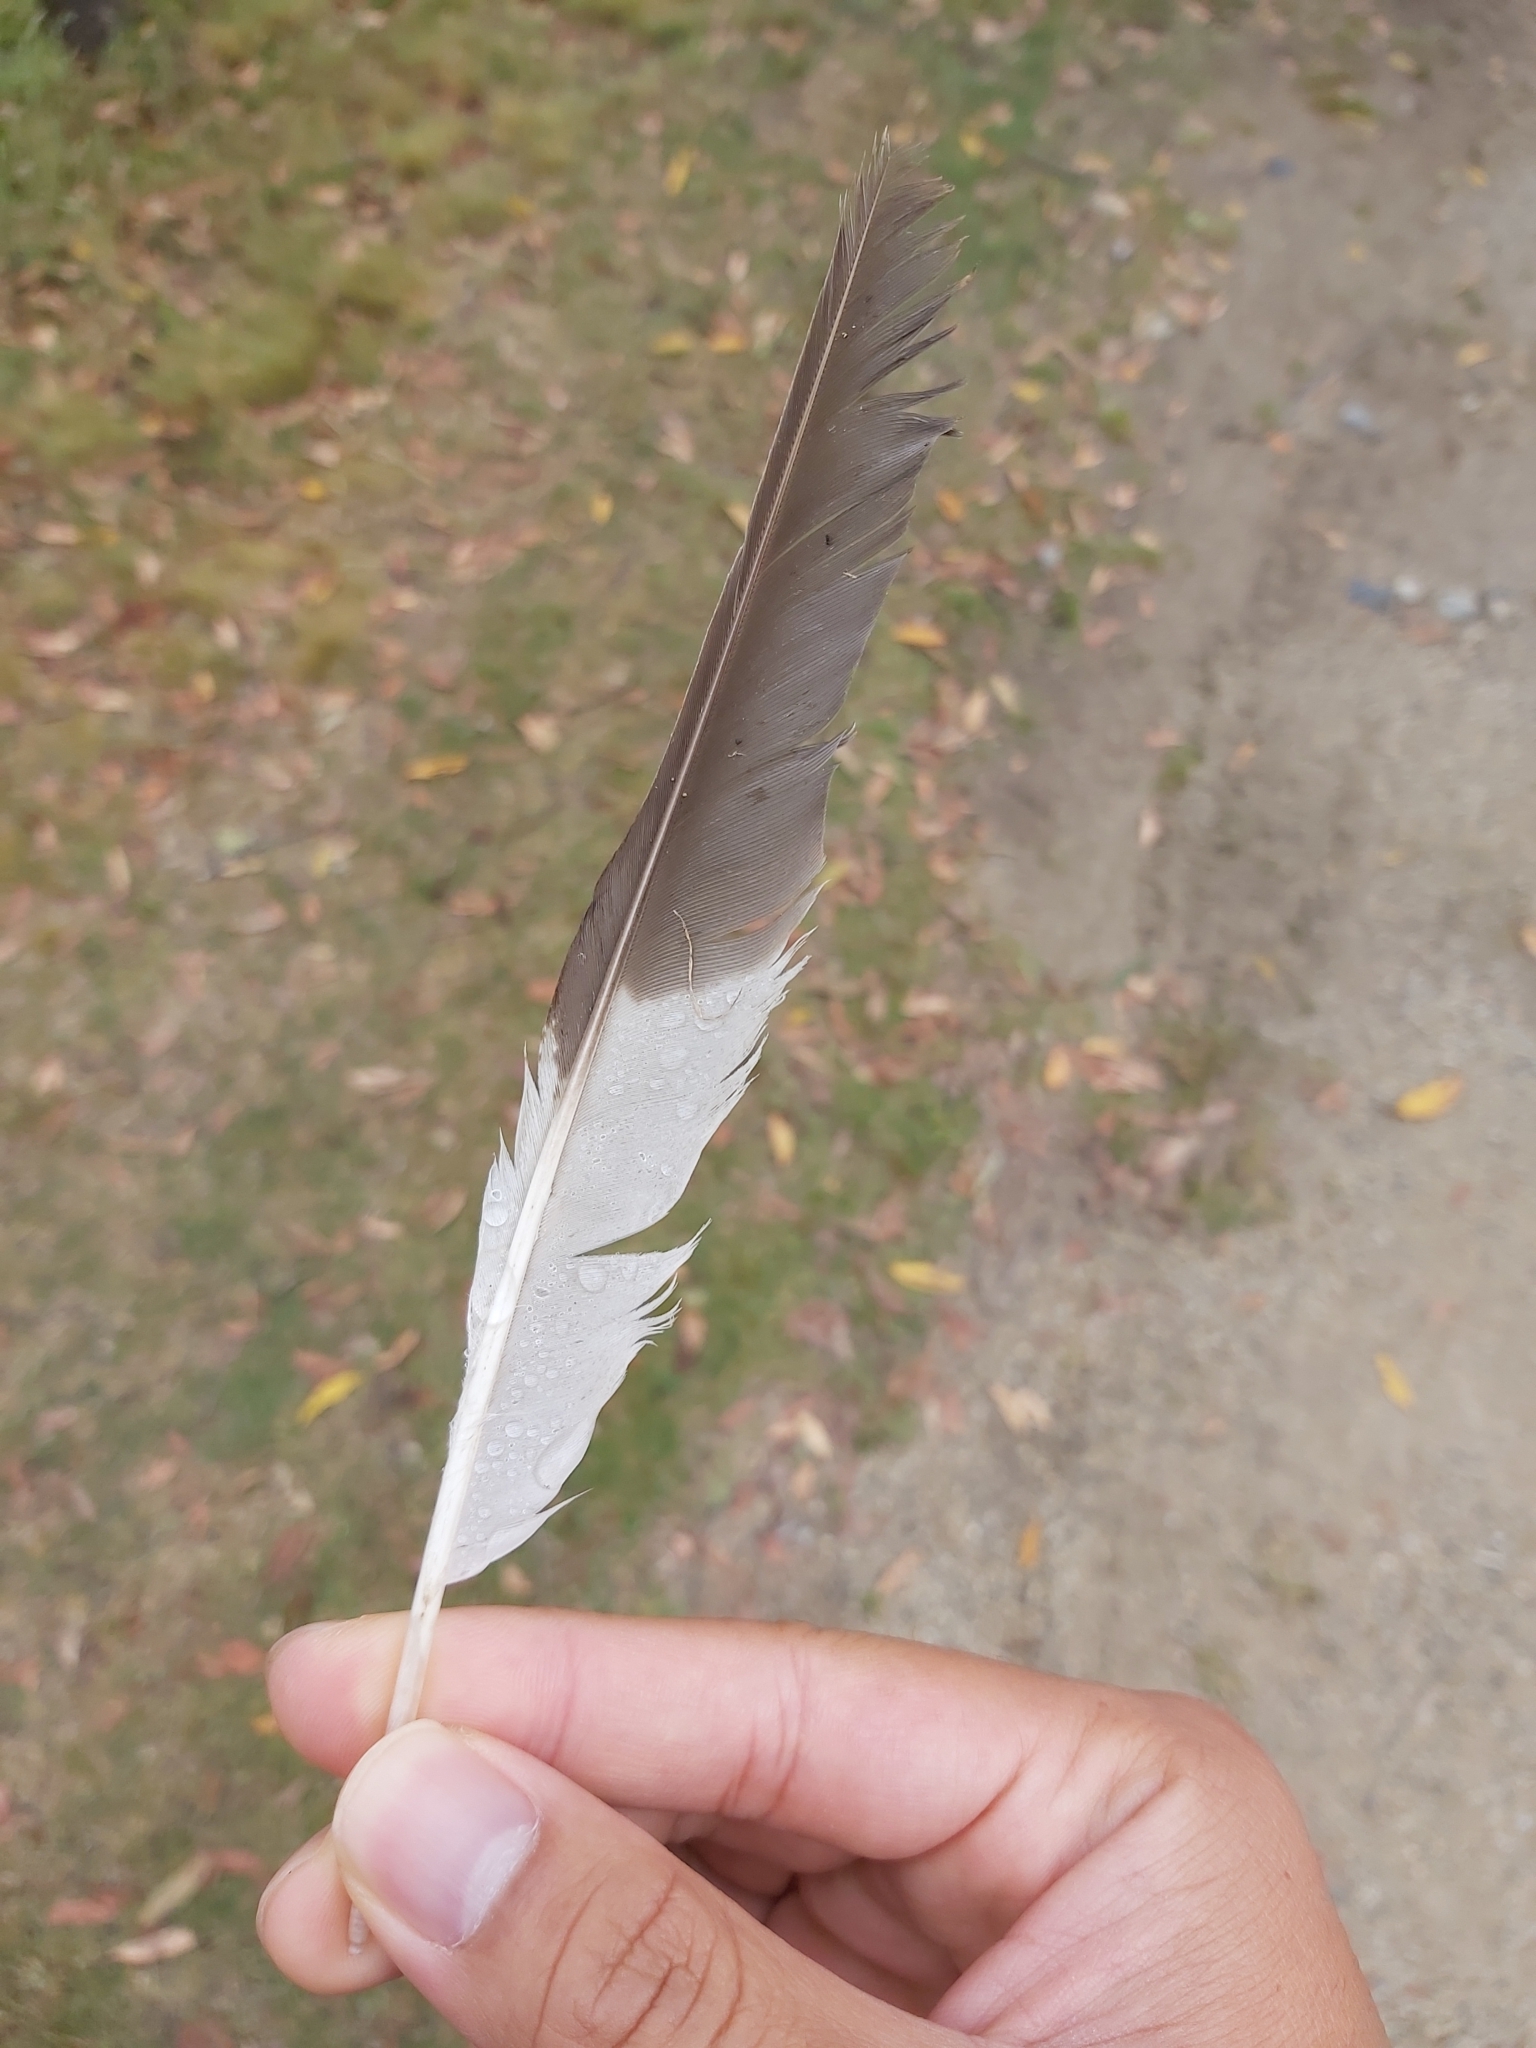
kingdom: Animalia
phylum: Chordata
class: Aves
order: Coraciiformes
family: Alcedinidae
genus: Dacelo
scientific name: Dacelo novaeguineae
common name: Laughing kookaburra
